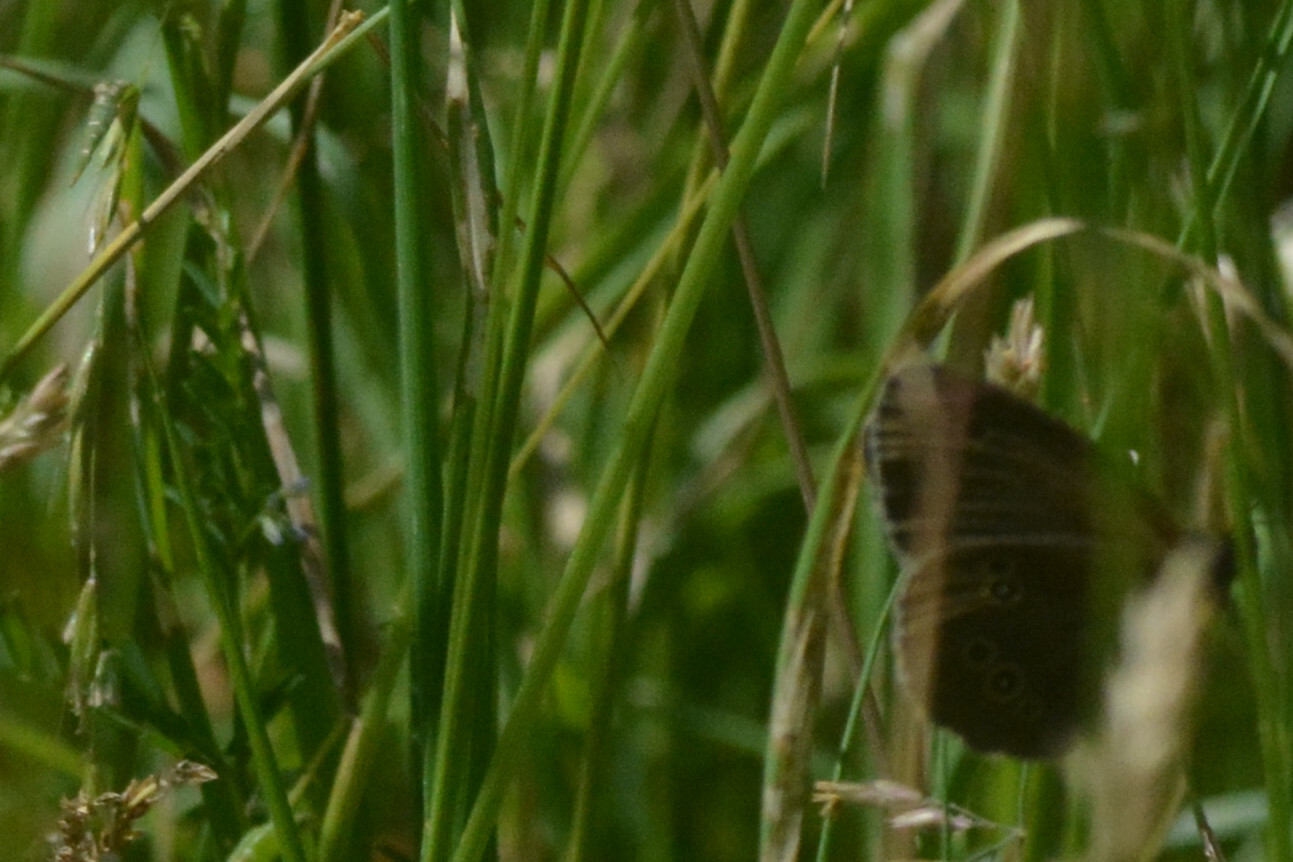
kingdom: Animalia
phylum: Arthropoda
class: Insecta
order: Lepidoptera
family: Nymphalidae
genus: Aphantopus
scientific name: Aphantopus hyperantus
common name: Ringlet
